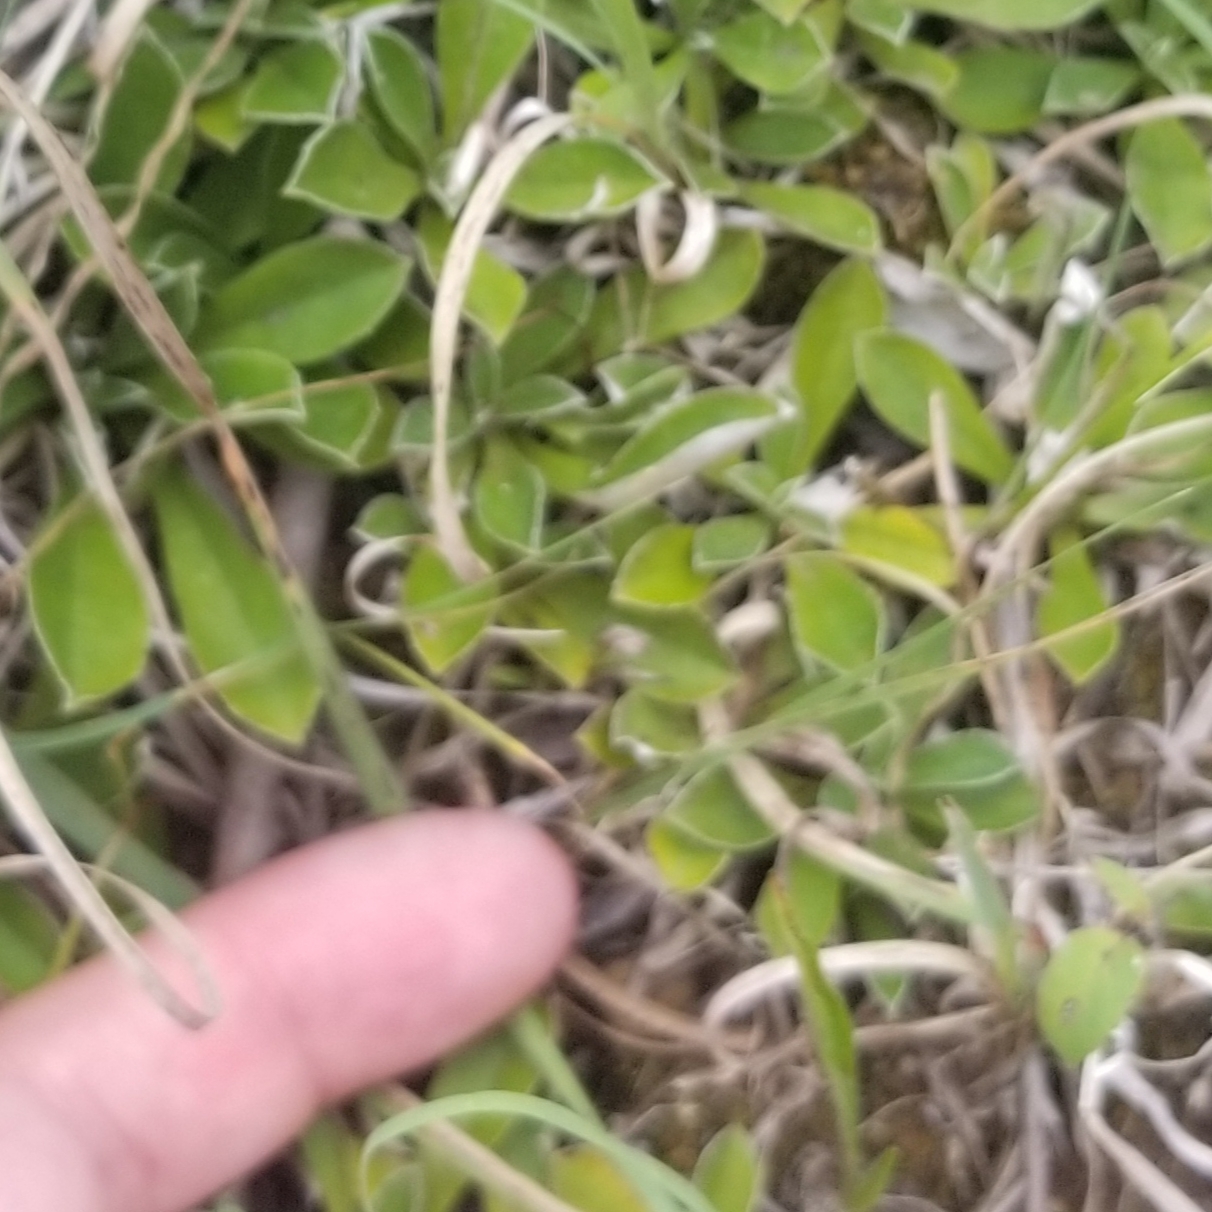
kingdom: Plantae
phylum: Tracheophyta
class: Magnoliopsida
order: Asterales
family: Asteraceae
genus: Antennaria
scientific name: Antennaria howellii
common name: Howell's pussytoes
